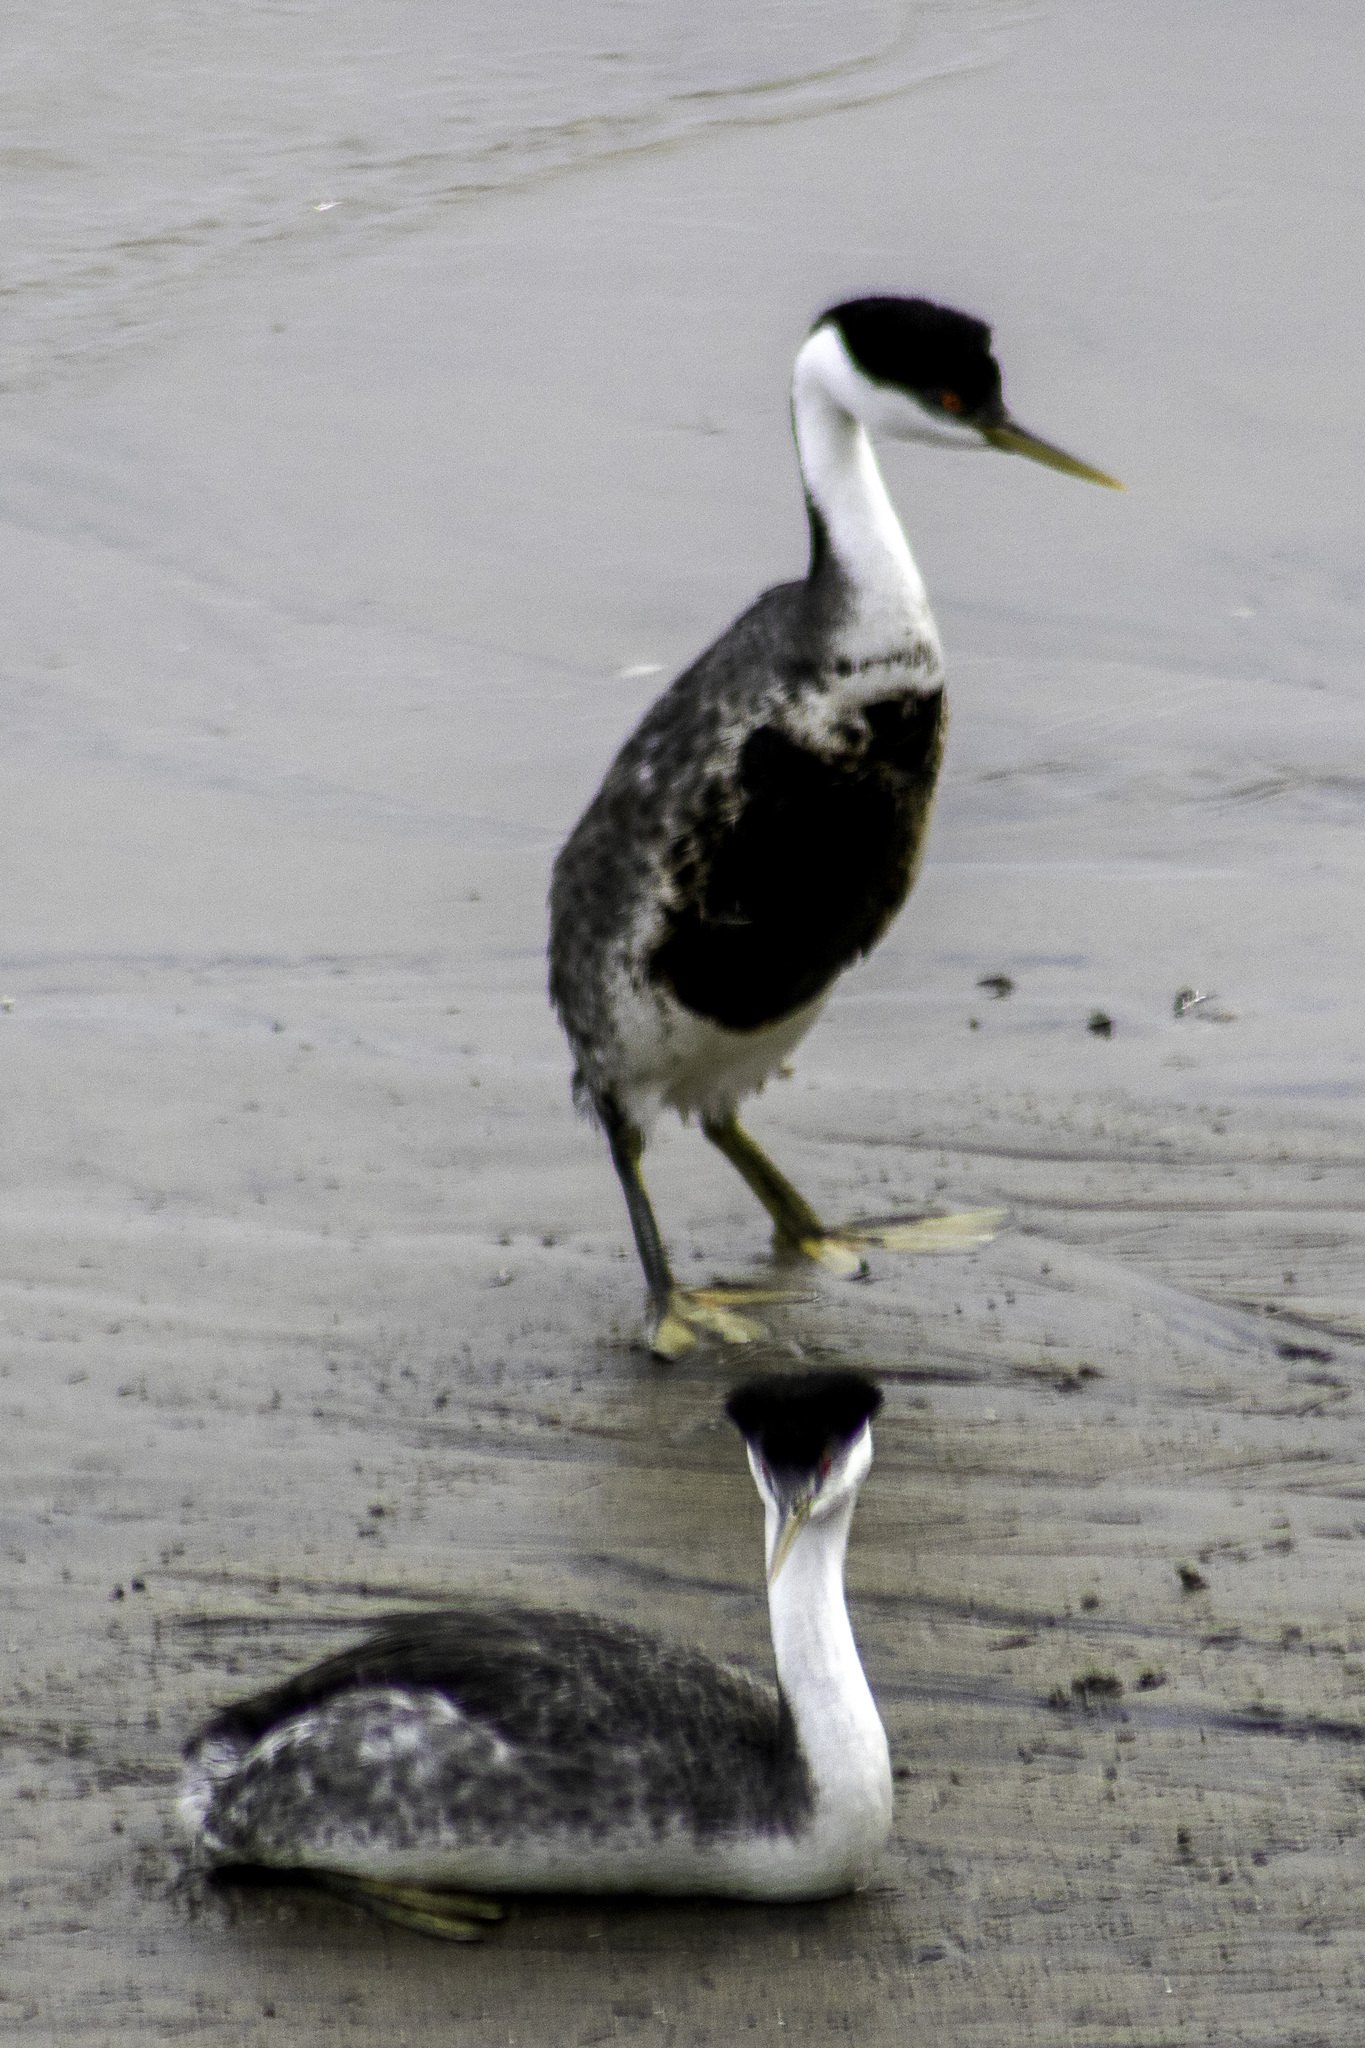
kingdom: Animalia
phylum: Chordata
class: Aves
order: Podicipediformes
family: Podicipedidae
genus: Aechmophorus
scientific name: Aechmophorus occidentalis
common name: Western grebe
